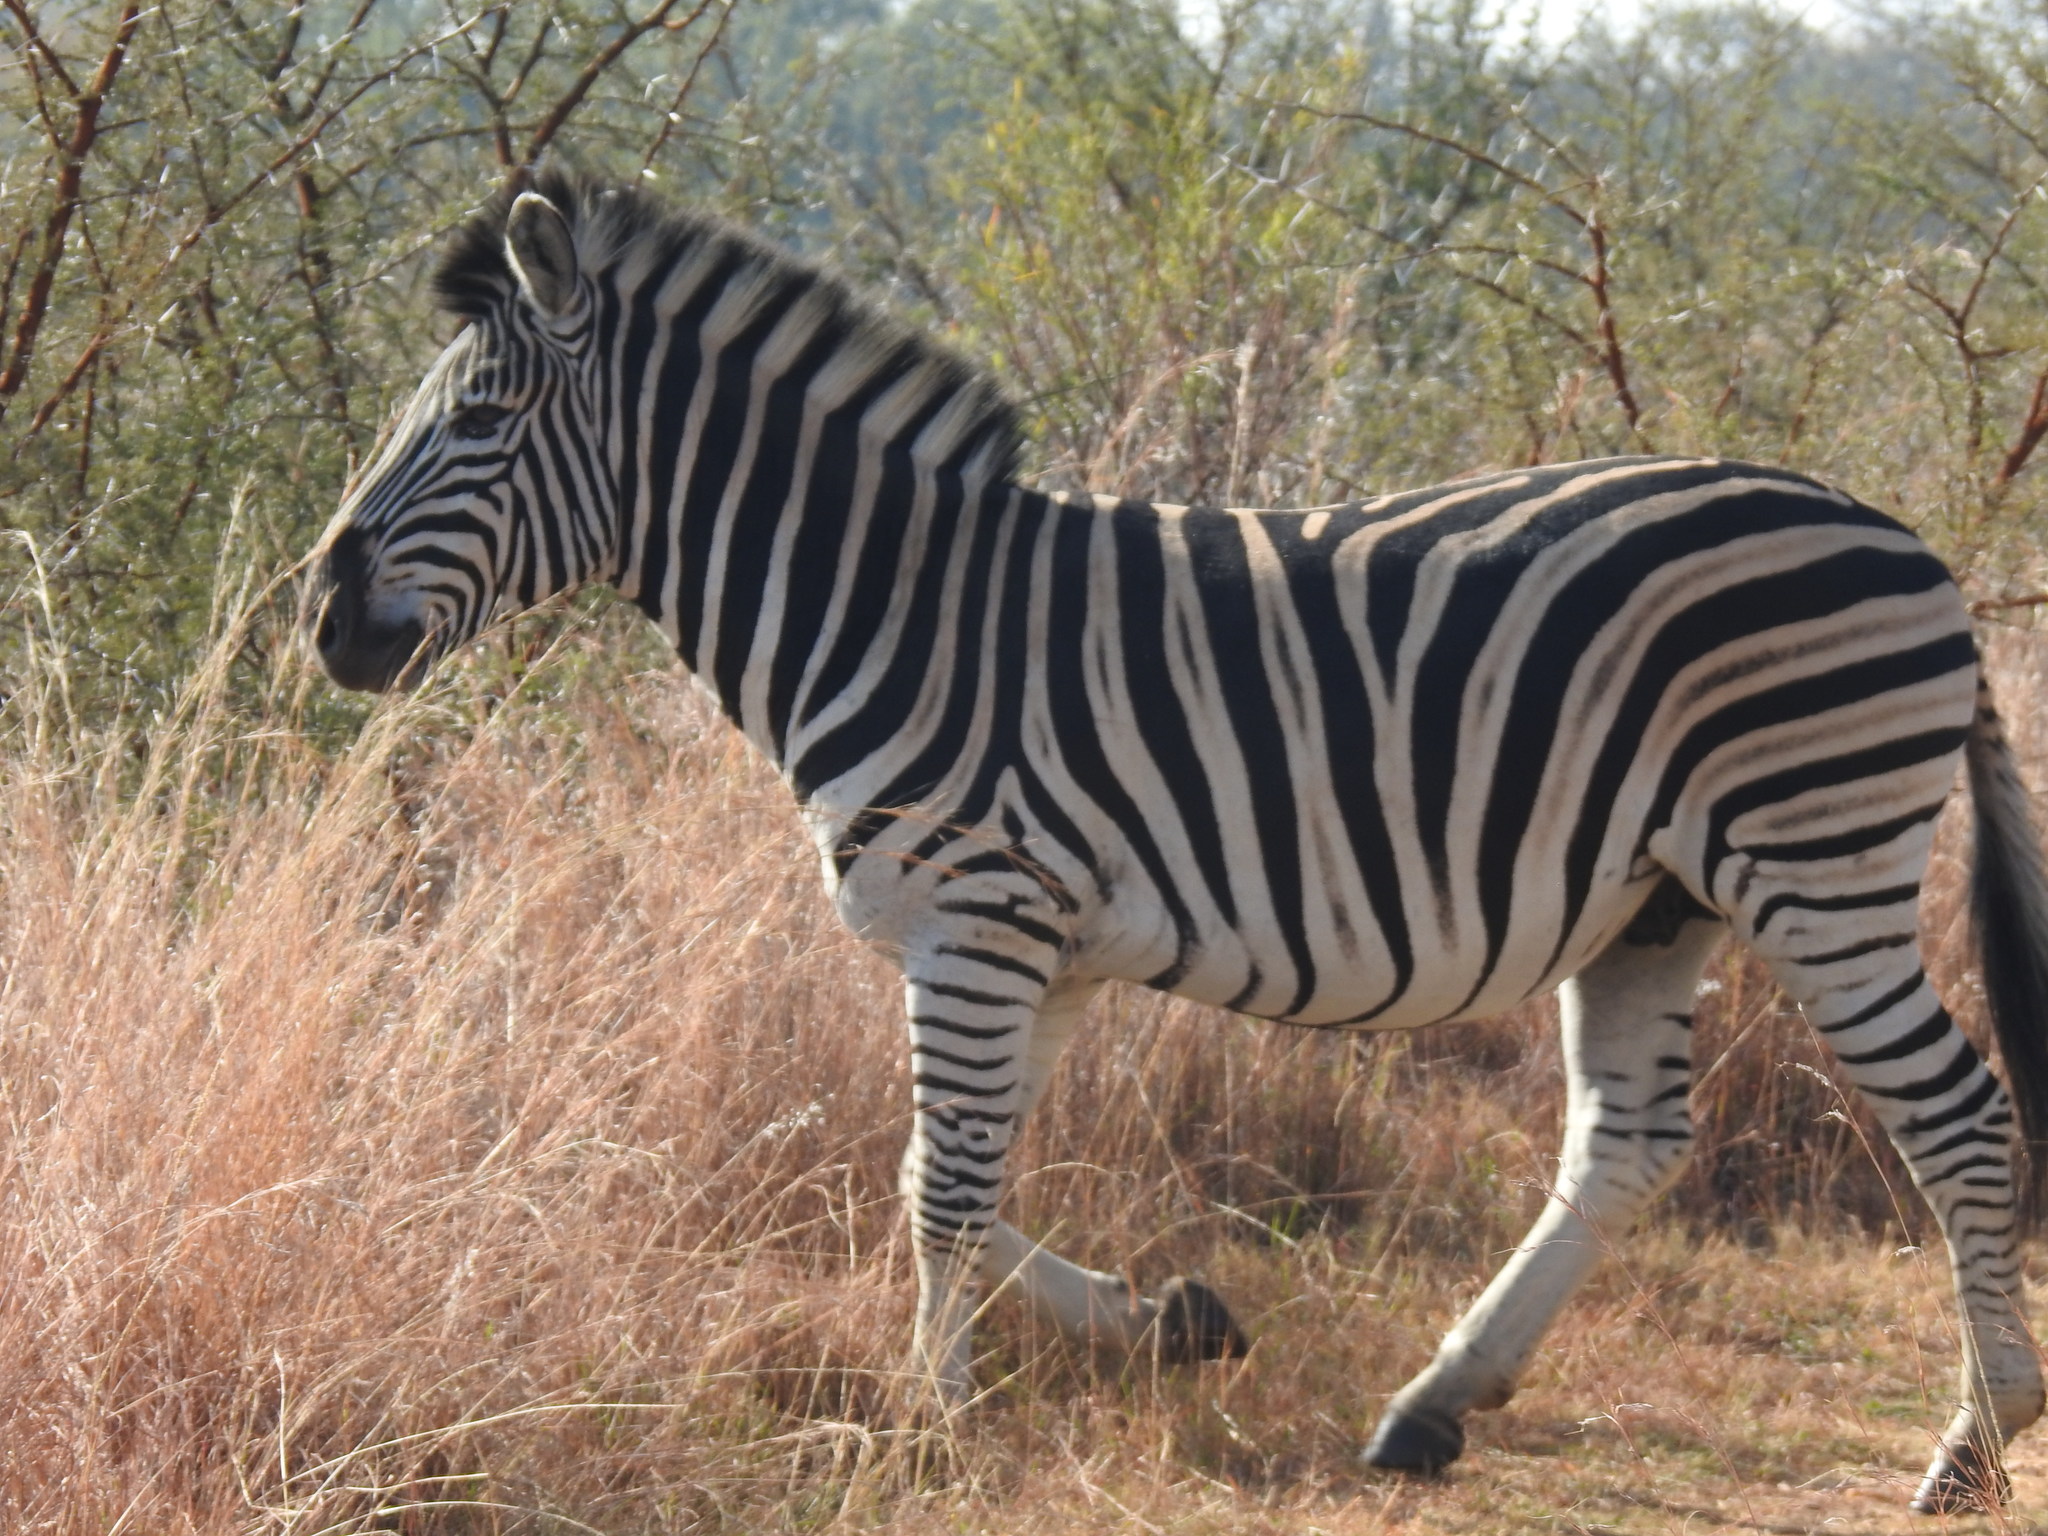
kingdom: Animalia
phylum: Chordata
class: Mammalia
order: Perissodactyla
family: Equidae
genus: Equus
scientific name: Equus quagga
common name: Plains zebra
